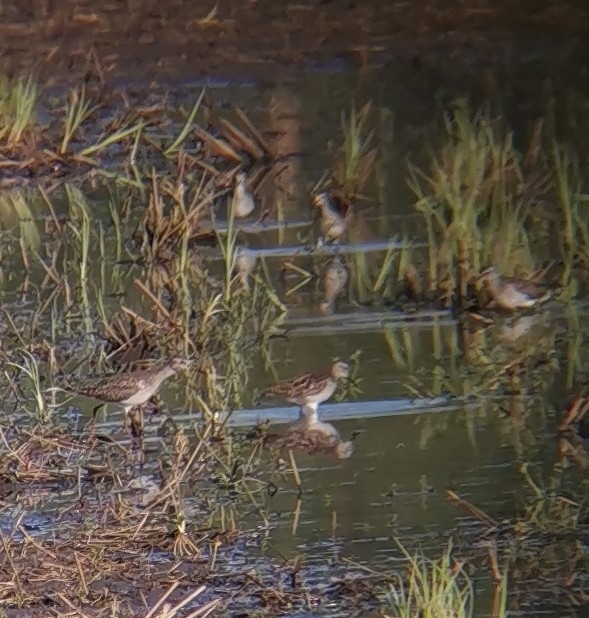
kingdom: Animalia
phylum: Chordata
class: Aves
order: Charadriiformes
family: Scolopacidae
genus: Tringa
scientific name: Tringa glareola
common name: Wood sandpiper
